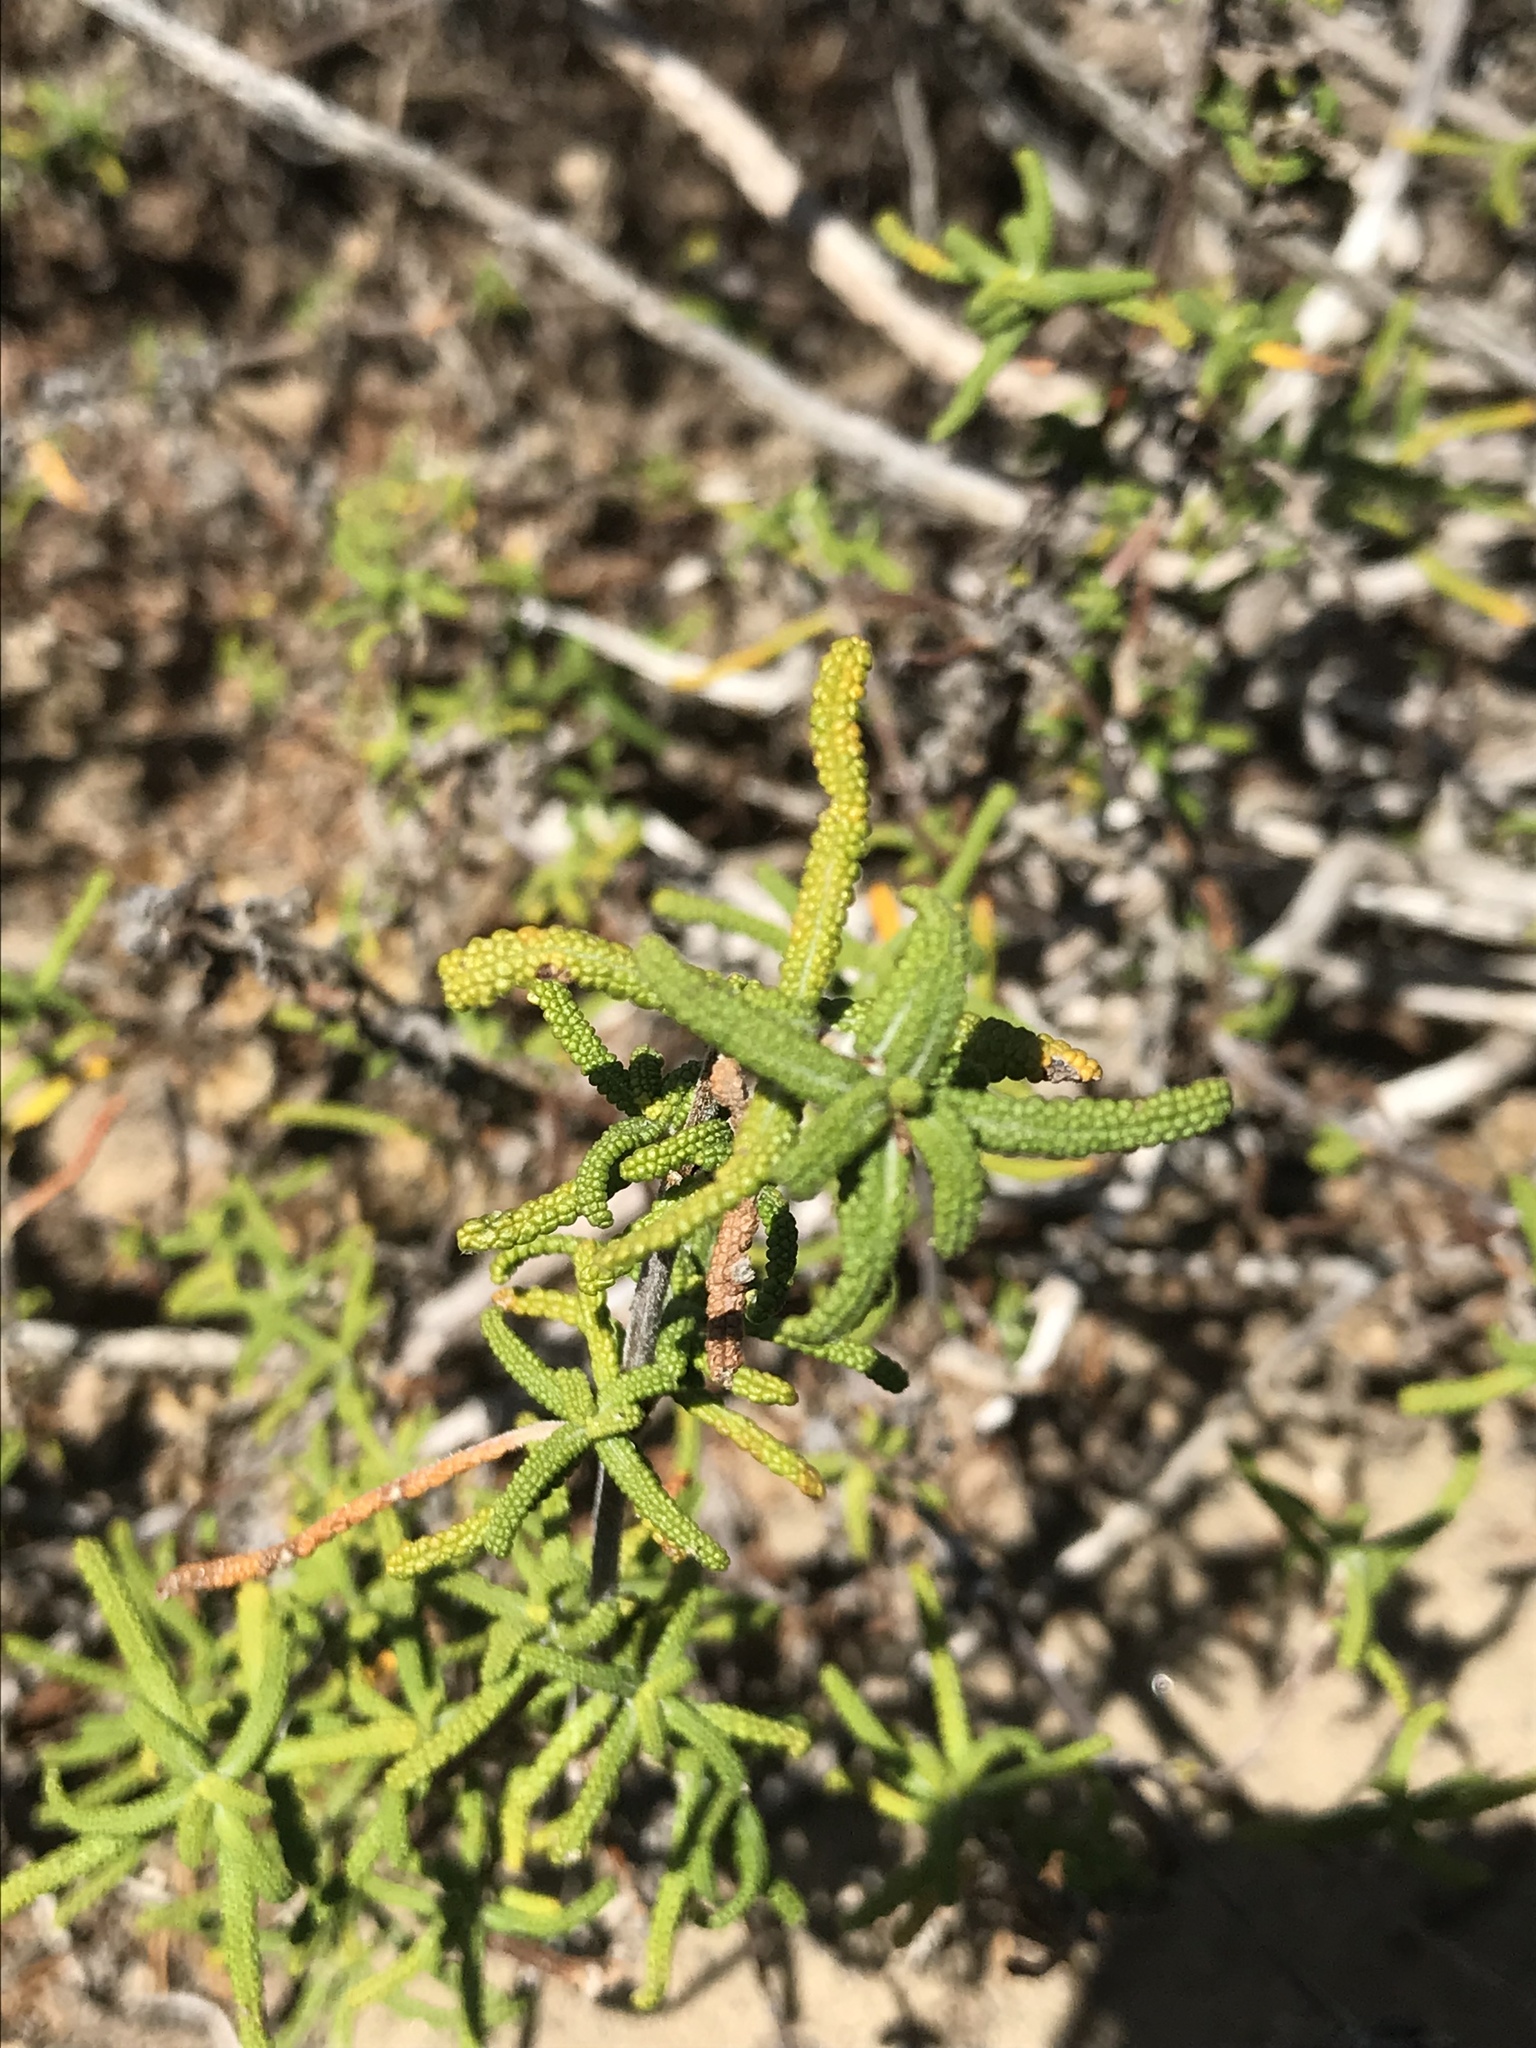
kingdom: Plantae
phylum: Tracheophyta
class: Magnoliopsida
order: Lamiales
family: Lamiaceae
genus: Salvia
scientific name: Salvia brandegeei
